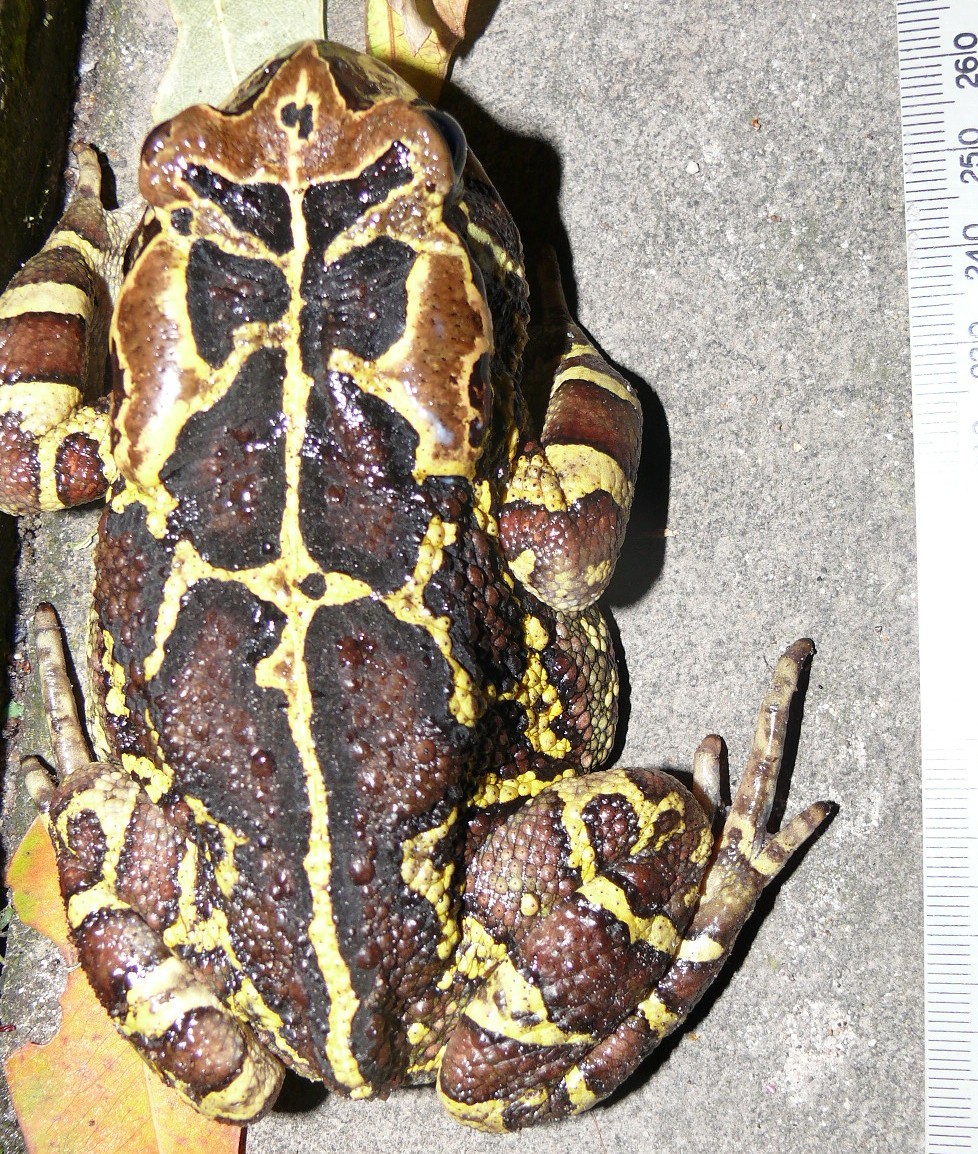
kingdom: Animalia
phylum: Chordata
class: Amphibia
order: Anura
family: Bufonidae
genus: Sclerophrys
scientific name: Sclerophrys pantherina
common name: Panther toad
